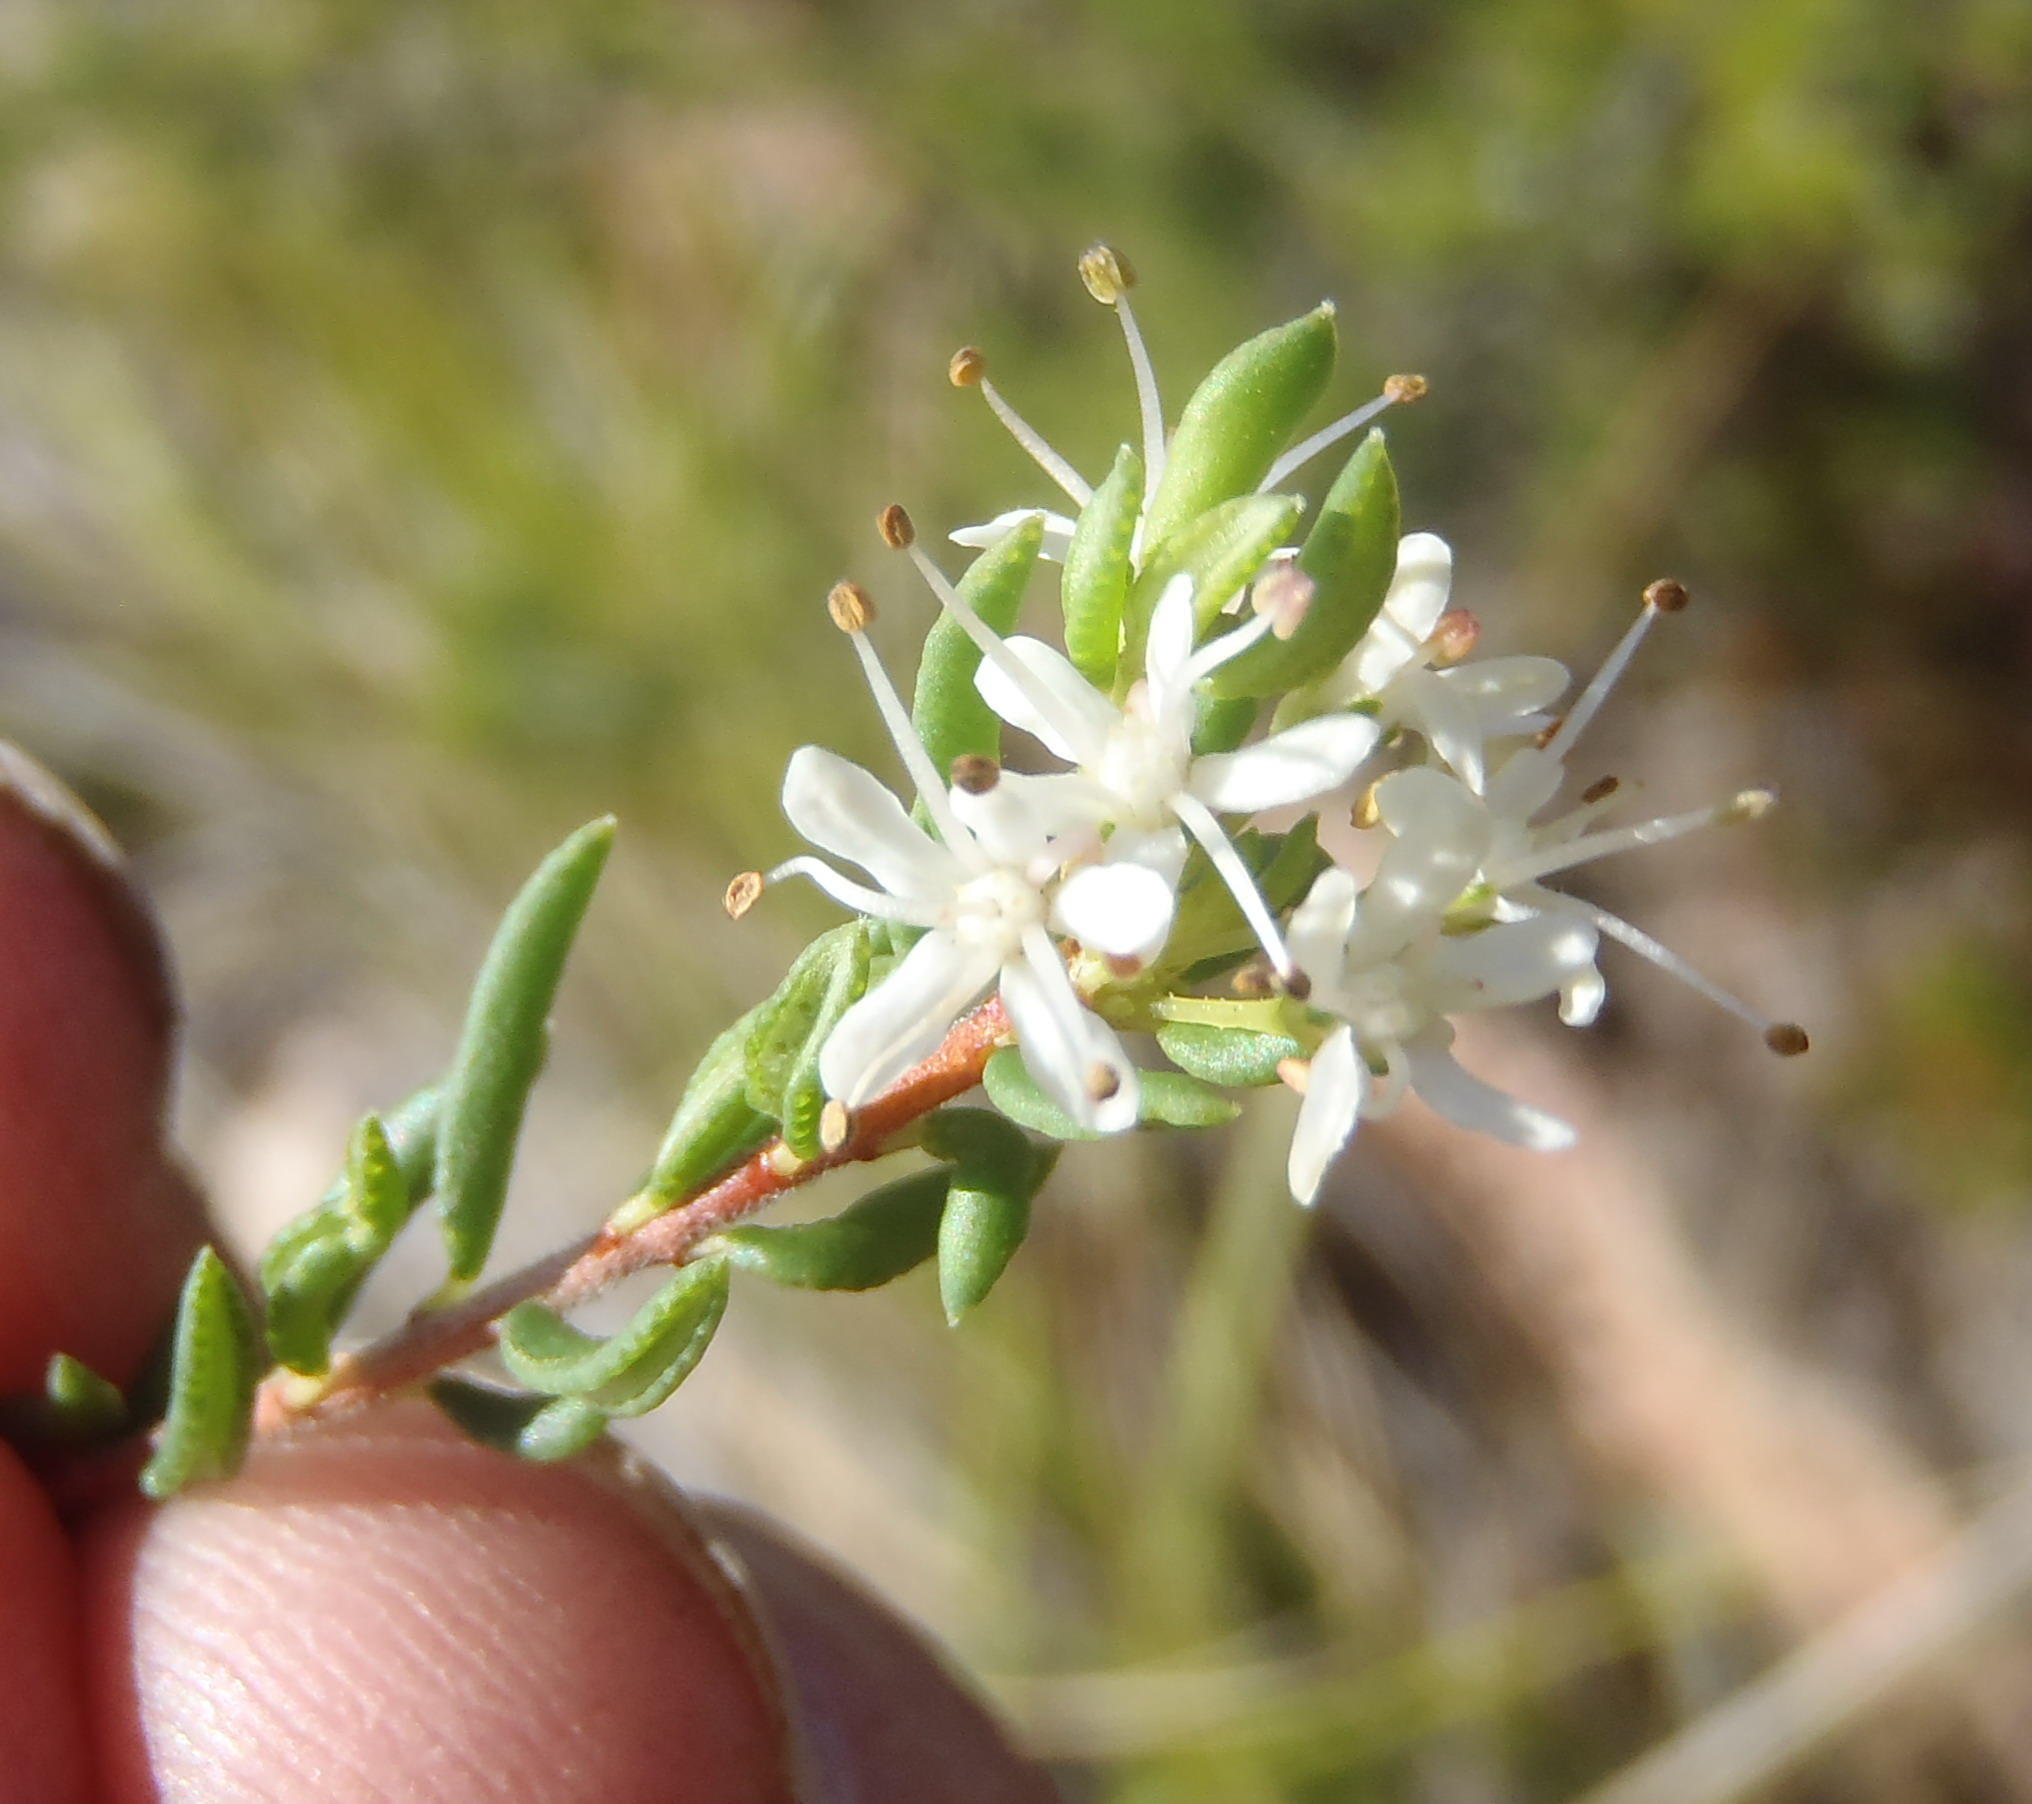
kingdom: Plantae
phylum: Tracheophyta
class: Magnoliopsida
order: Sapindales
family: Rutaceae
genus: Agathosma
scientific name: Agathosma mundtii
